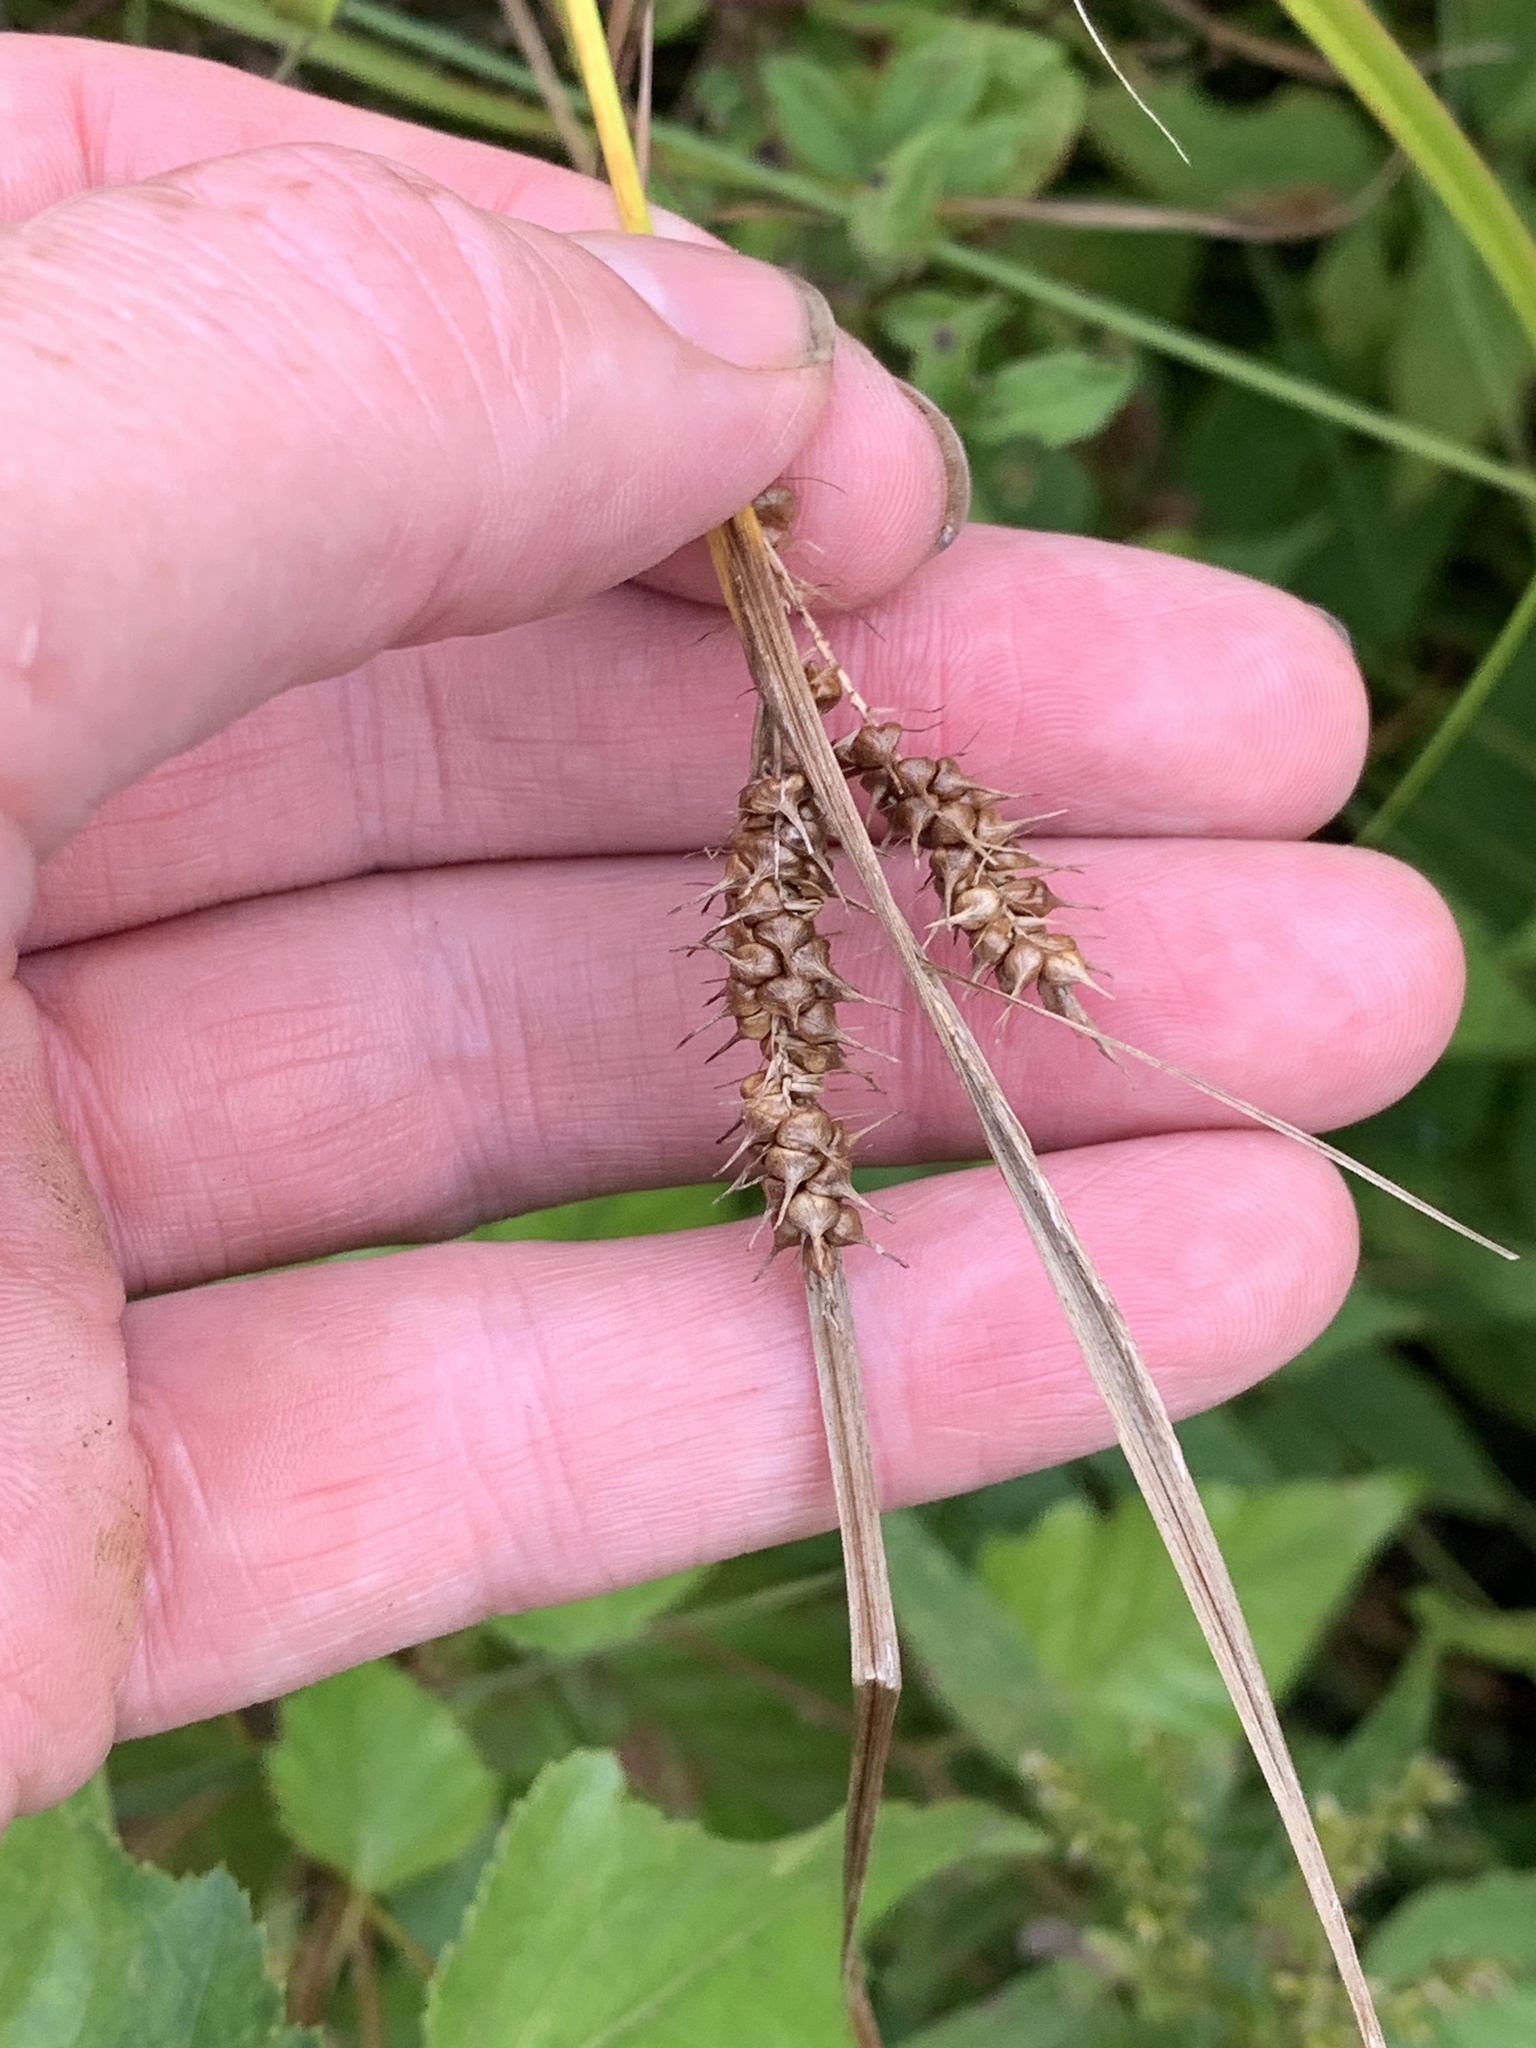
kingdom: Plantae
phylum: Tracheophyta
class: Liliopsida
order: Poales
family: Cyperaceae
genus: Carex
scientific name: Carex baileyi
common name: Bailey's sedge
